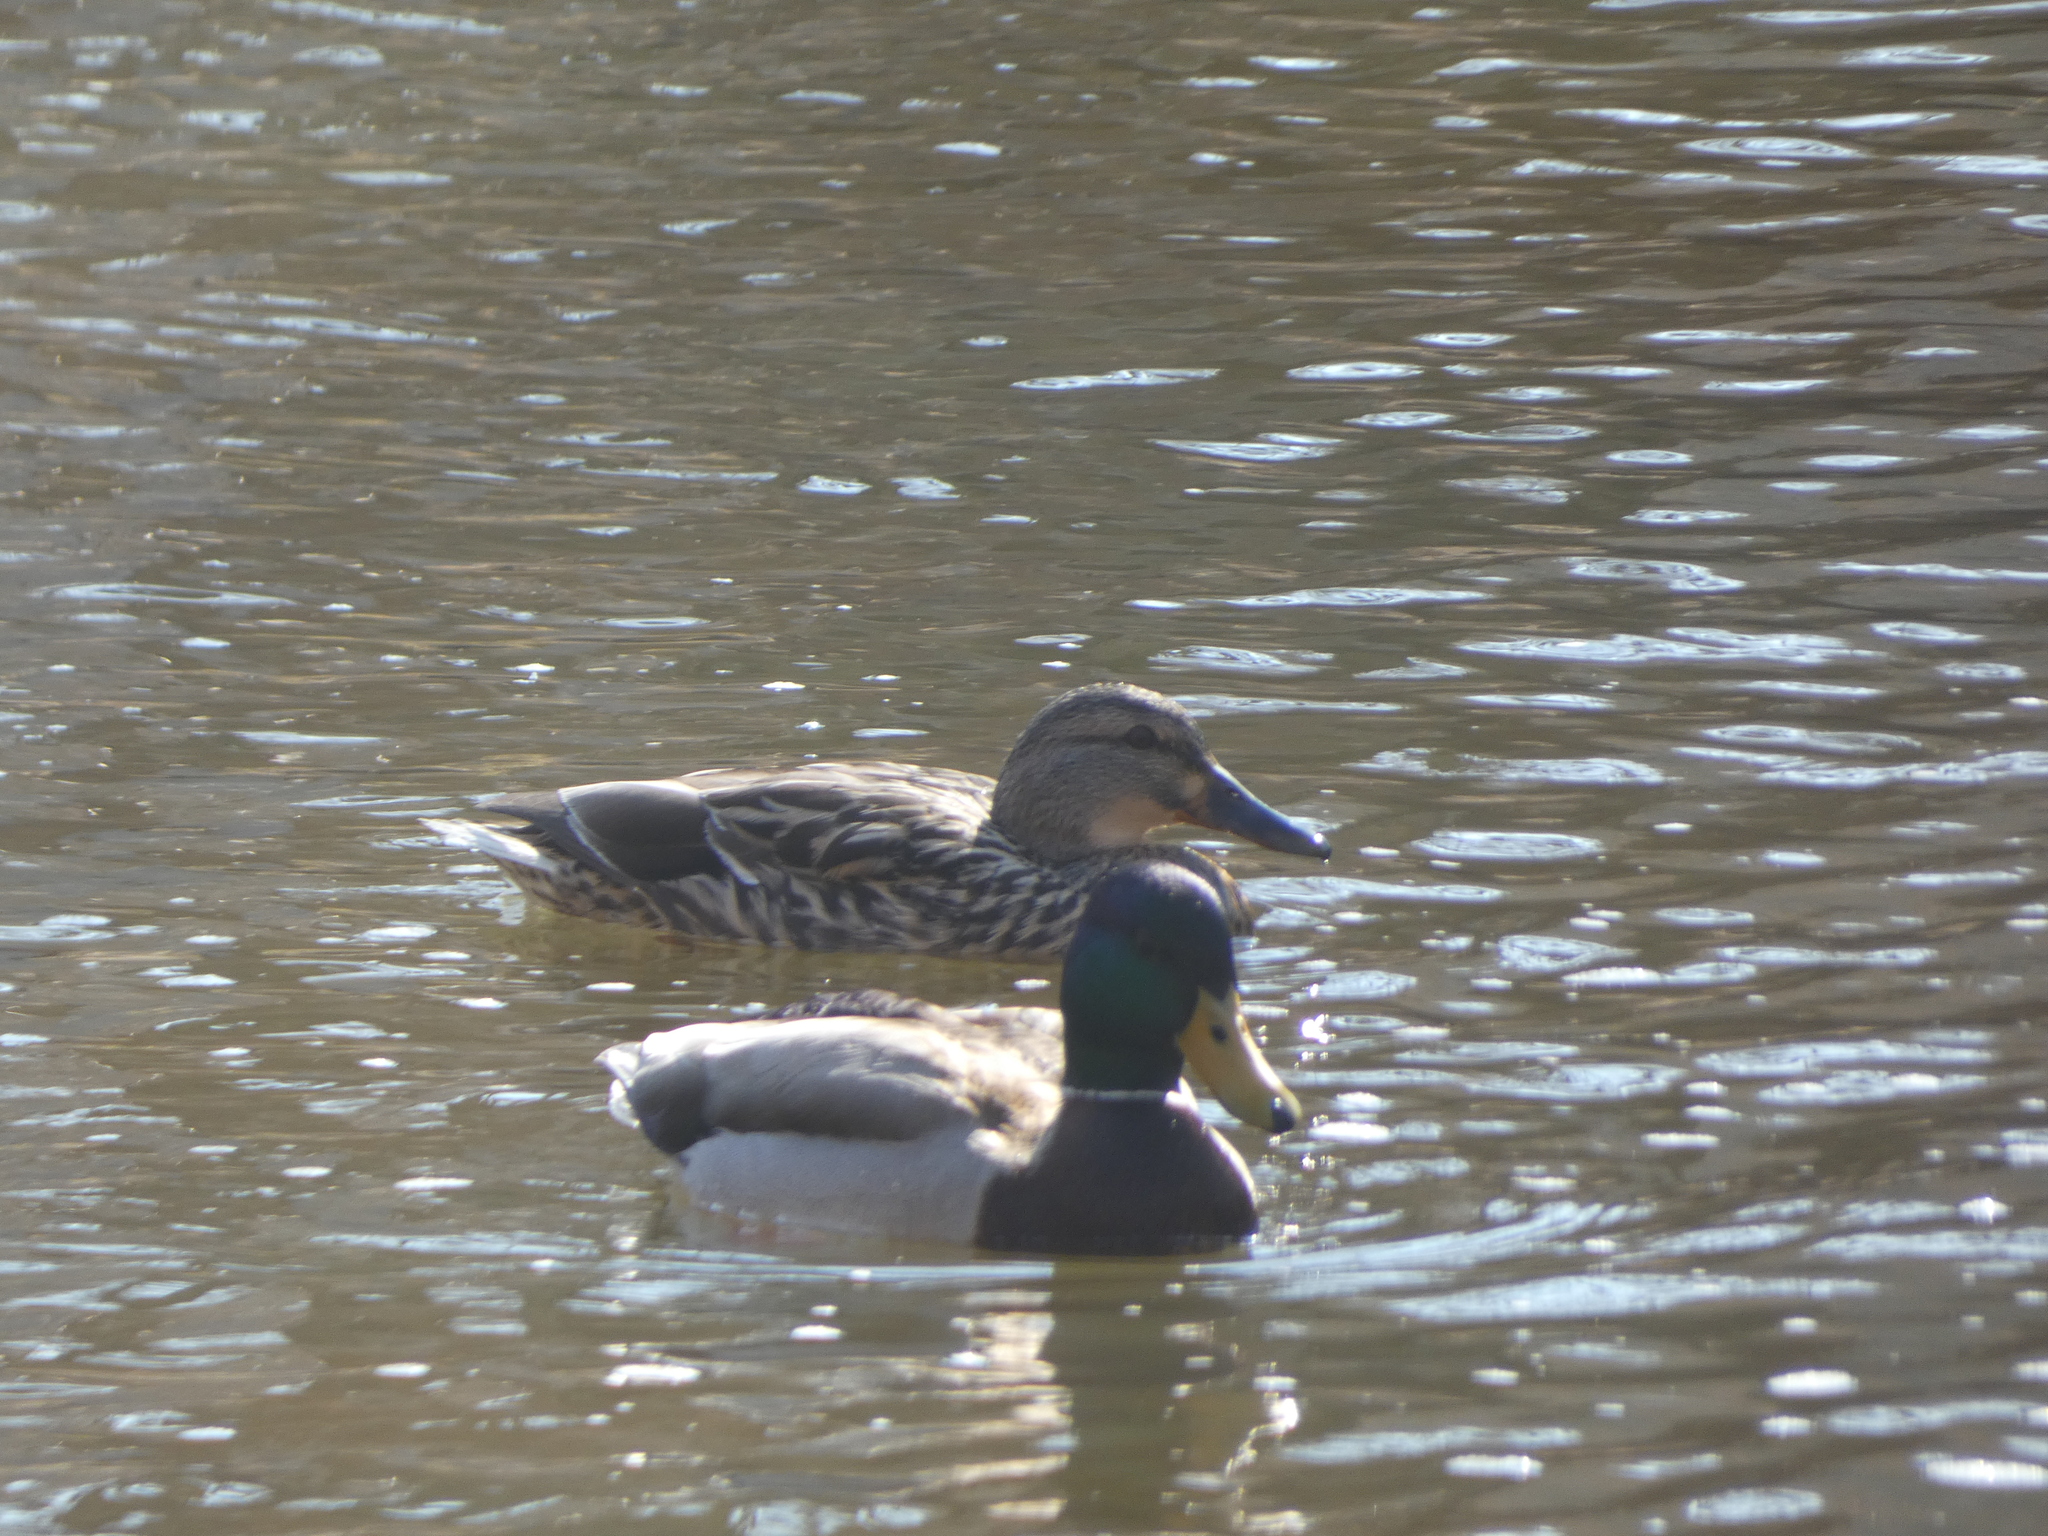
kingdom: Animalia
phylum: Chordata
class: Aves
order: Anseriformes
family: Anatidae
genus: Anas
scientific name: Anas platyrhynchos
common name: Mallard
